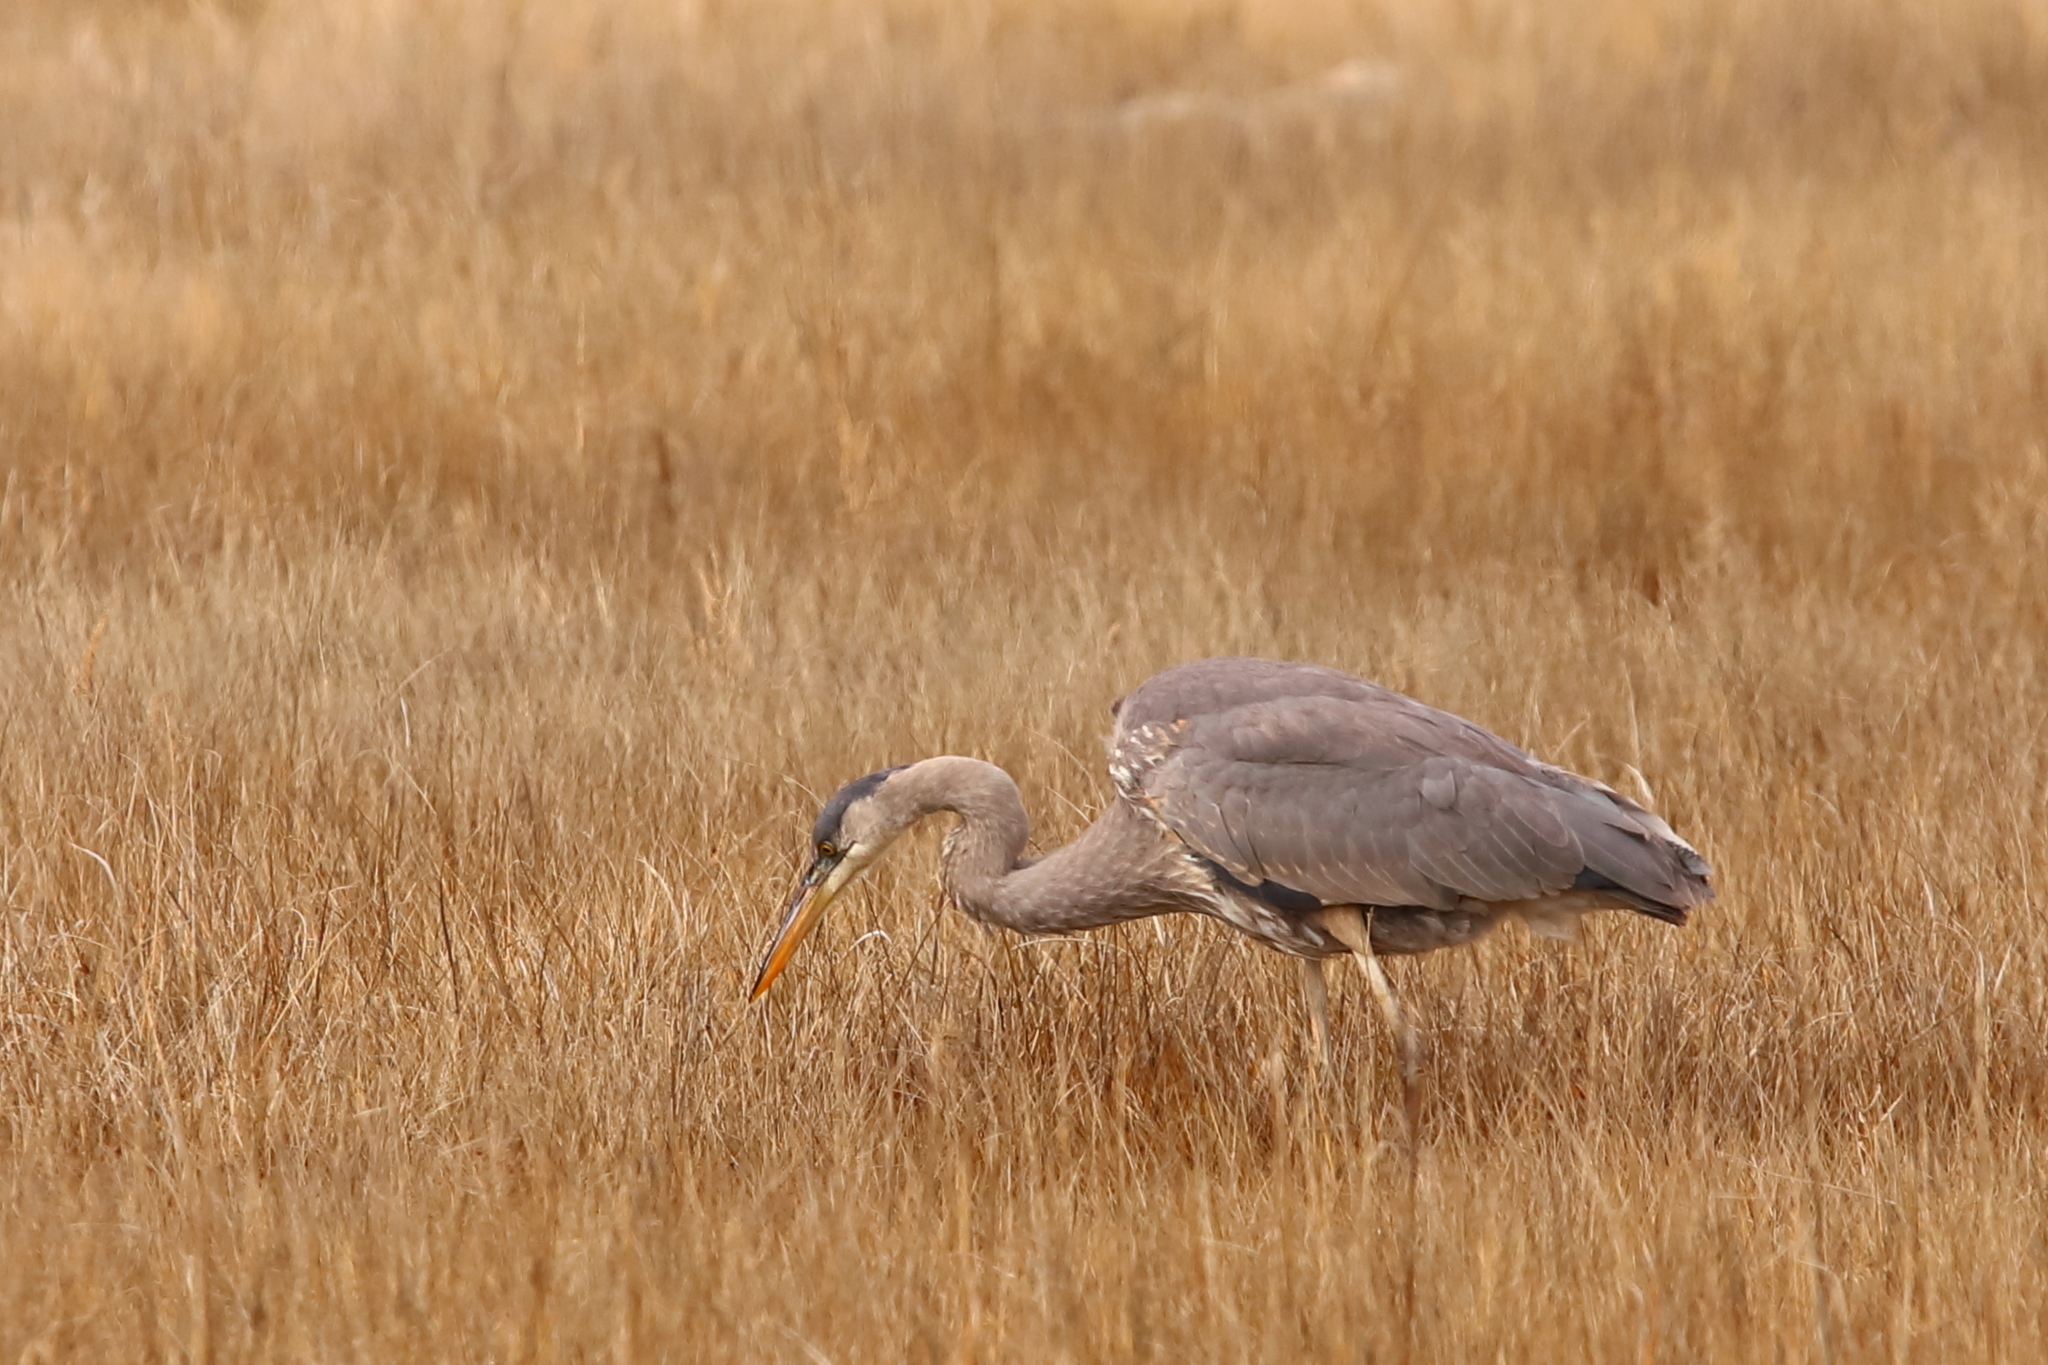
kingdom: Animalia
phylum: Chordata
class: Aves
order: Pelecaniformes
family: Ardeidae
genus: Ardea
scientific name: Ardea herodias
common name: Great blue heron
